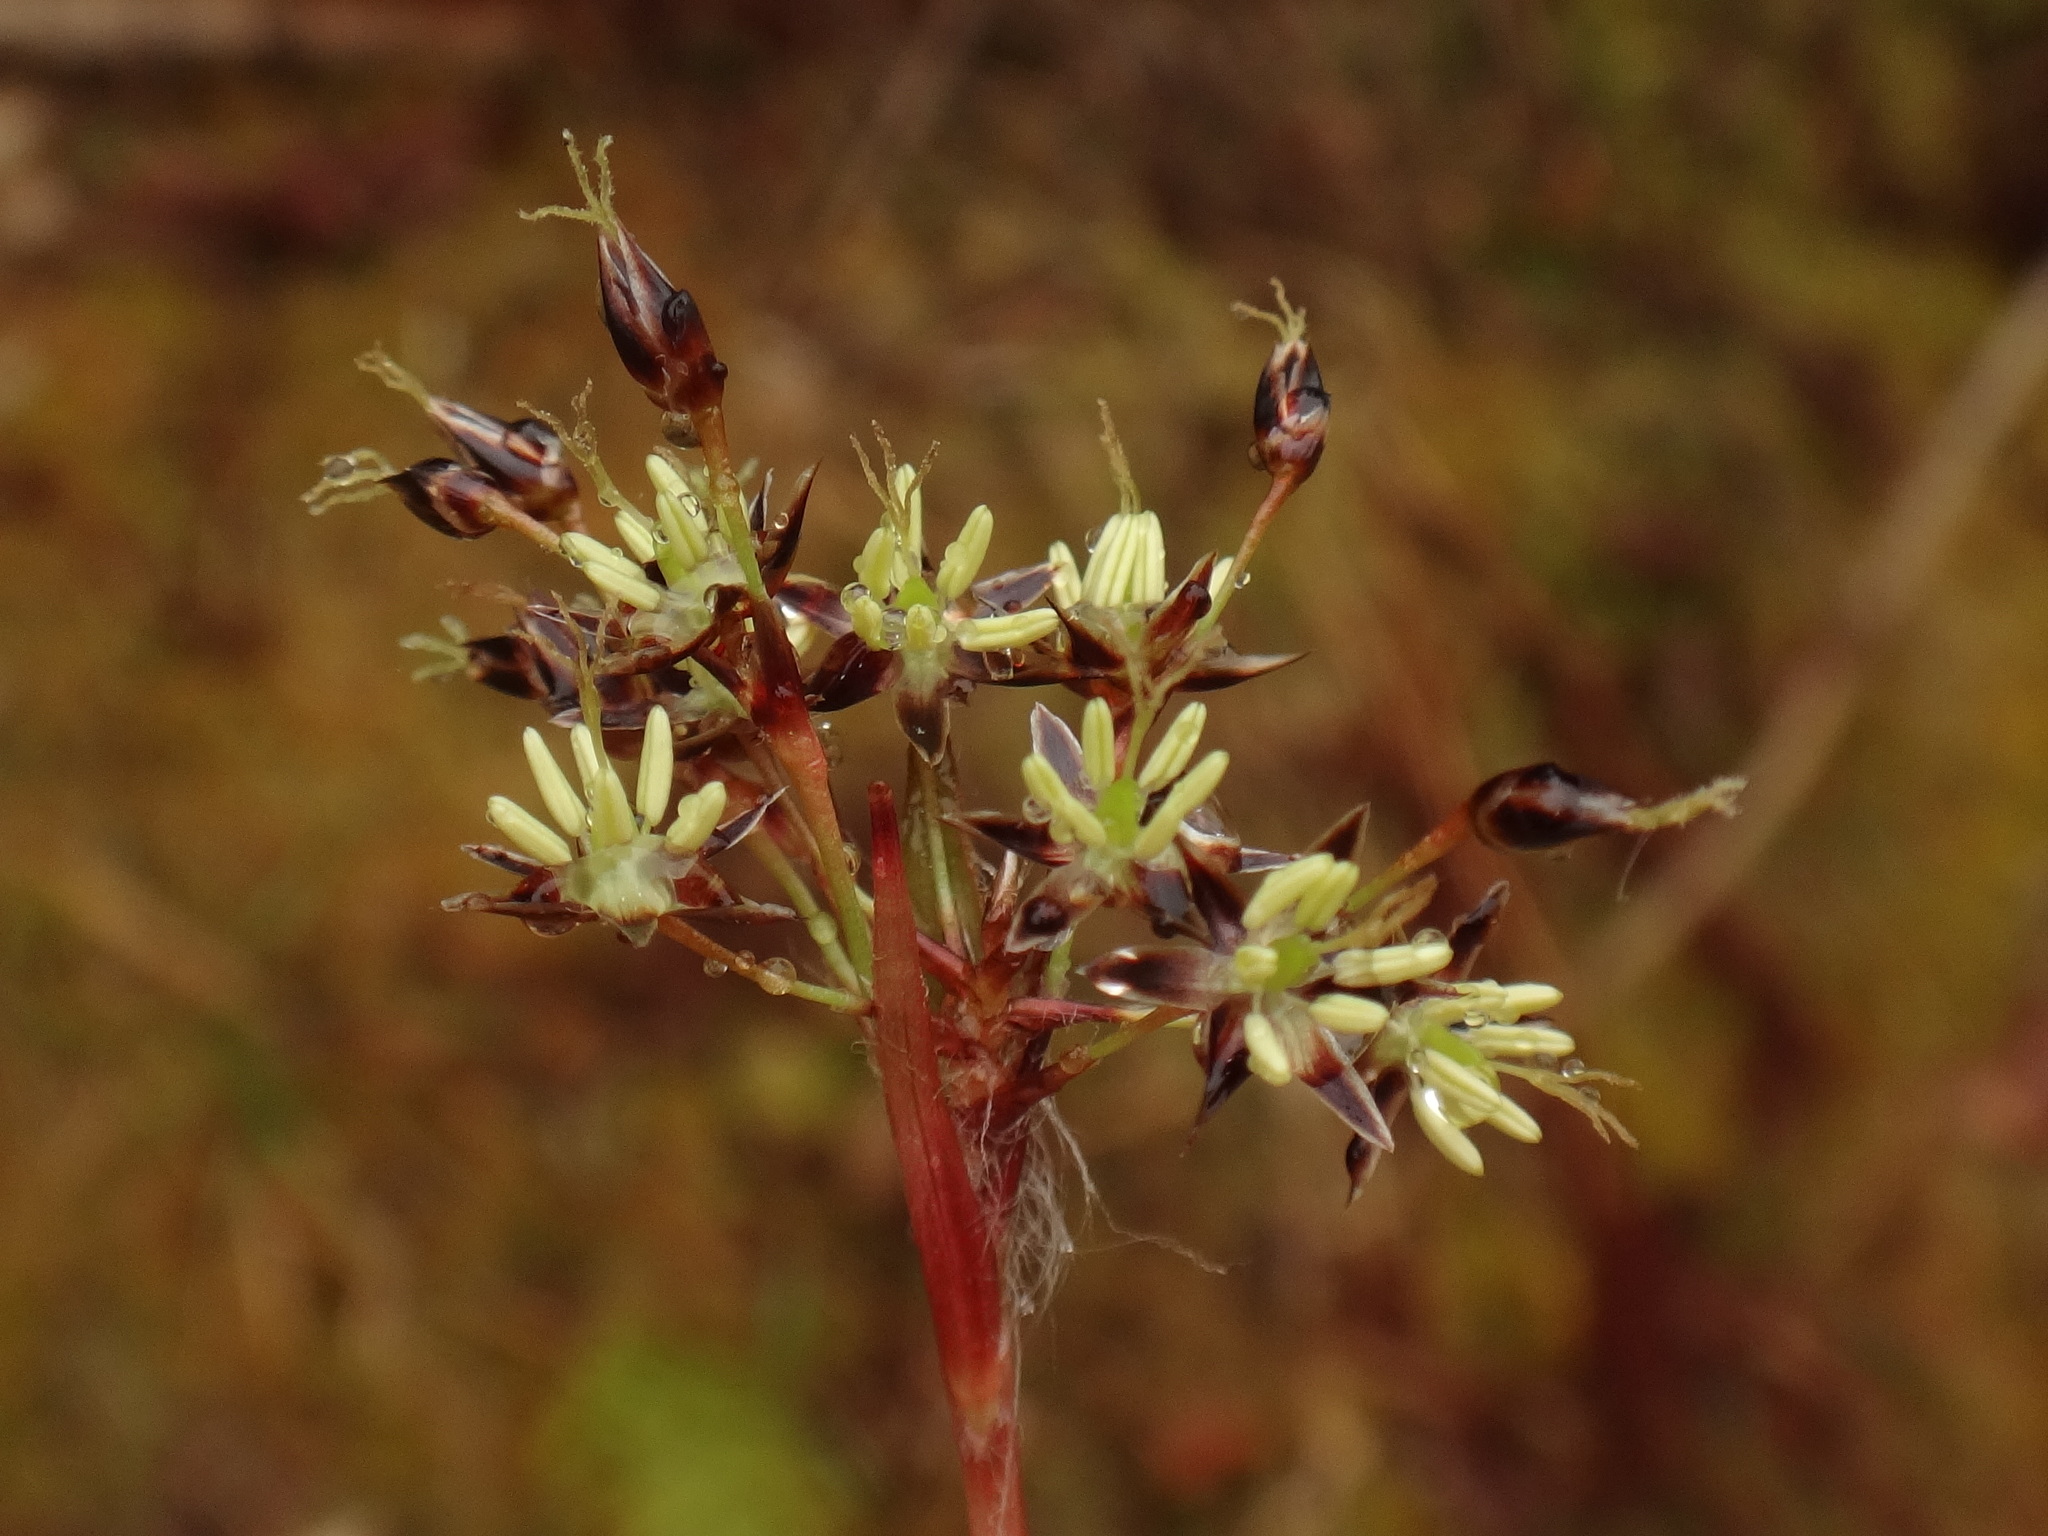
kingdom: Plantae
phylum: Tracheophyta
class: Liliopsida
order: Poales
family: Juncaceae
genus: Luzula
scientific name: Luzula campestris
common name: Field wood-rush
